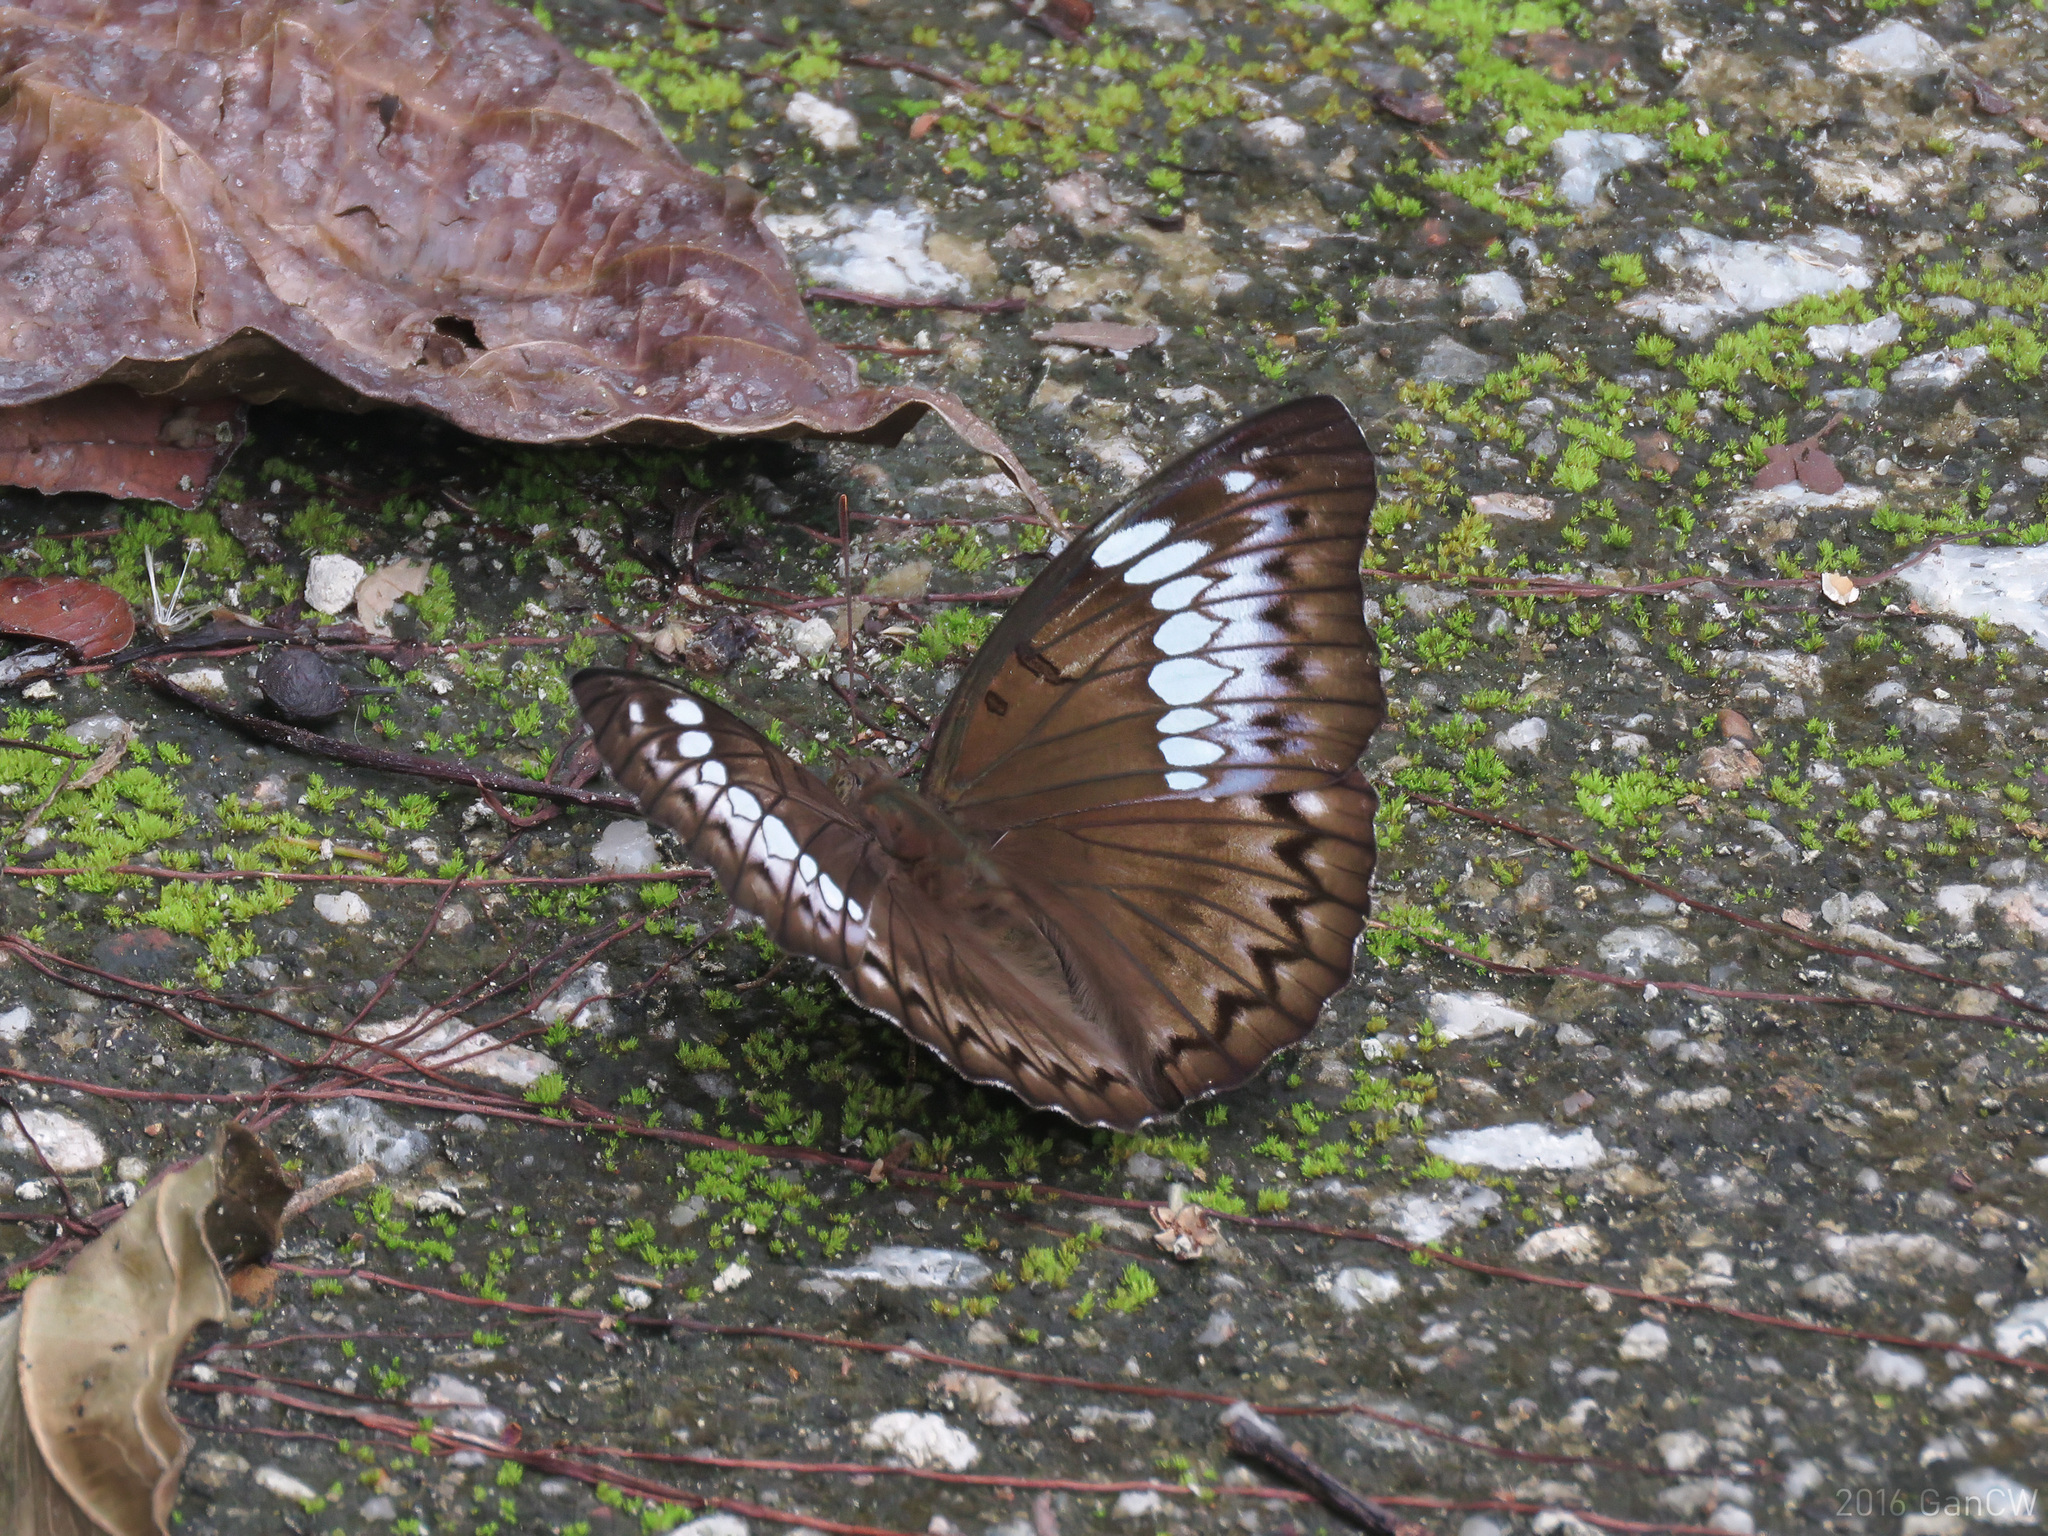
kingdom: Animalia
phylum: Arthropoda
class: Insecta
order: Lepidoptera
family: Nymphalidae
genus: Euthalia
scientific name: Euthalia Bassarona teuta
